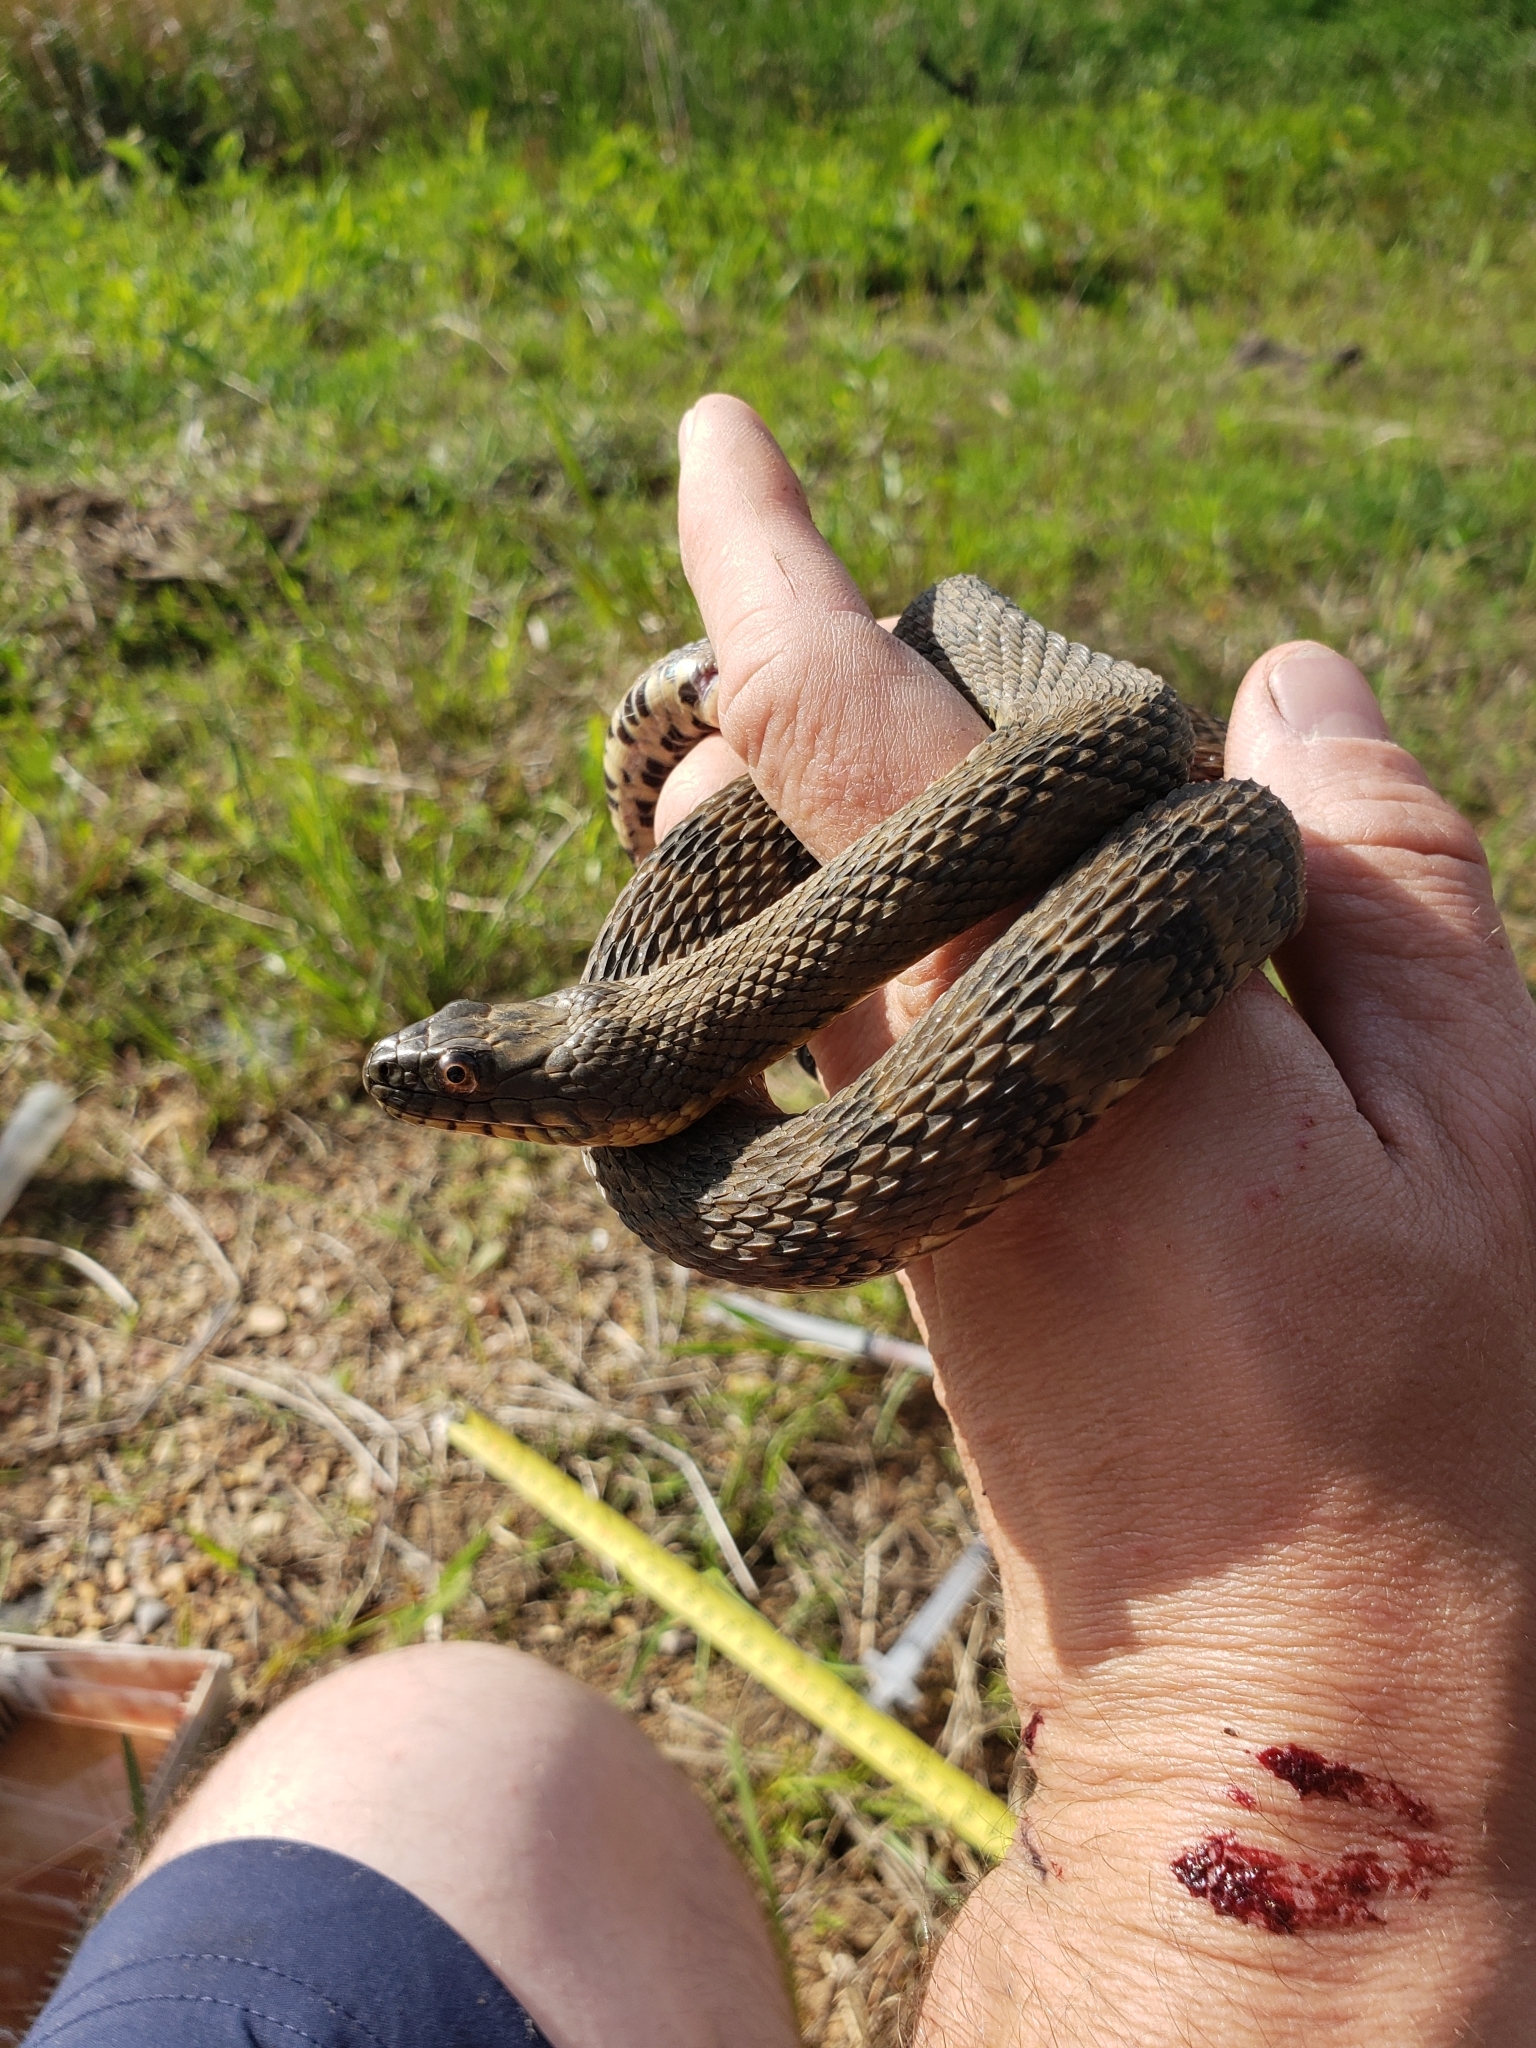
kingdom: Animalia
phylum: Chordata
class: Squamata
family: Colubridae
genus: Nerodia
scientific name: Nerodia rhombifer
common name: Diamondback water snake
